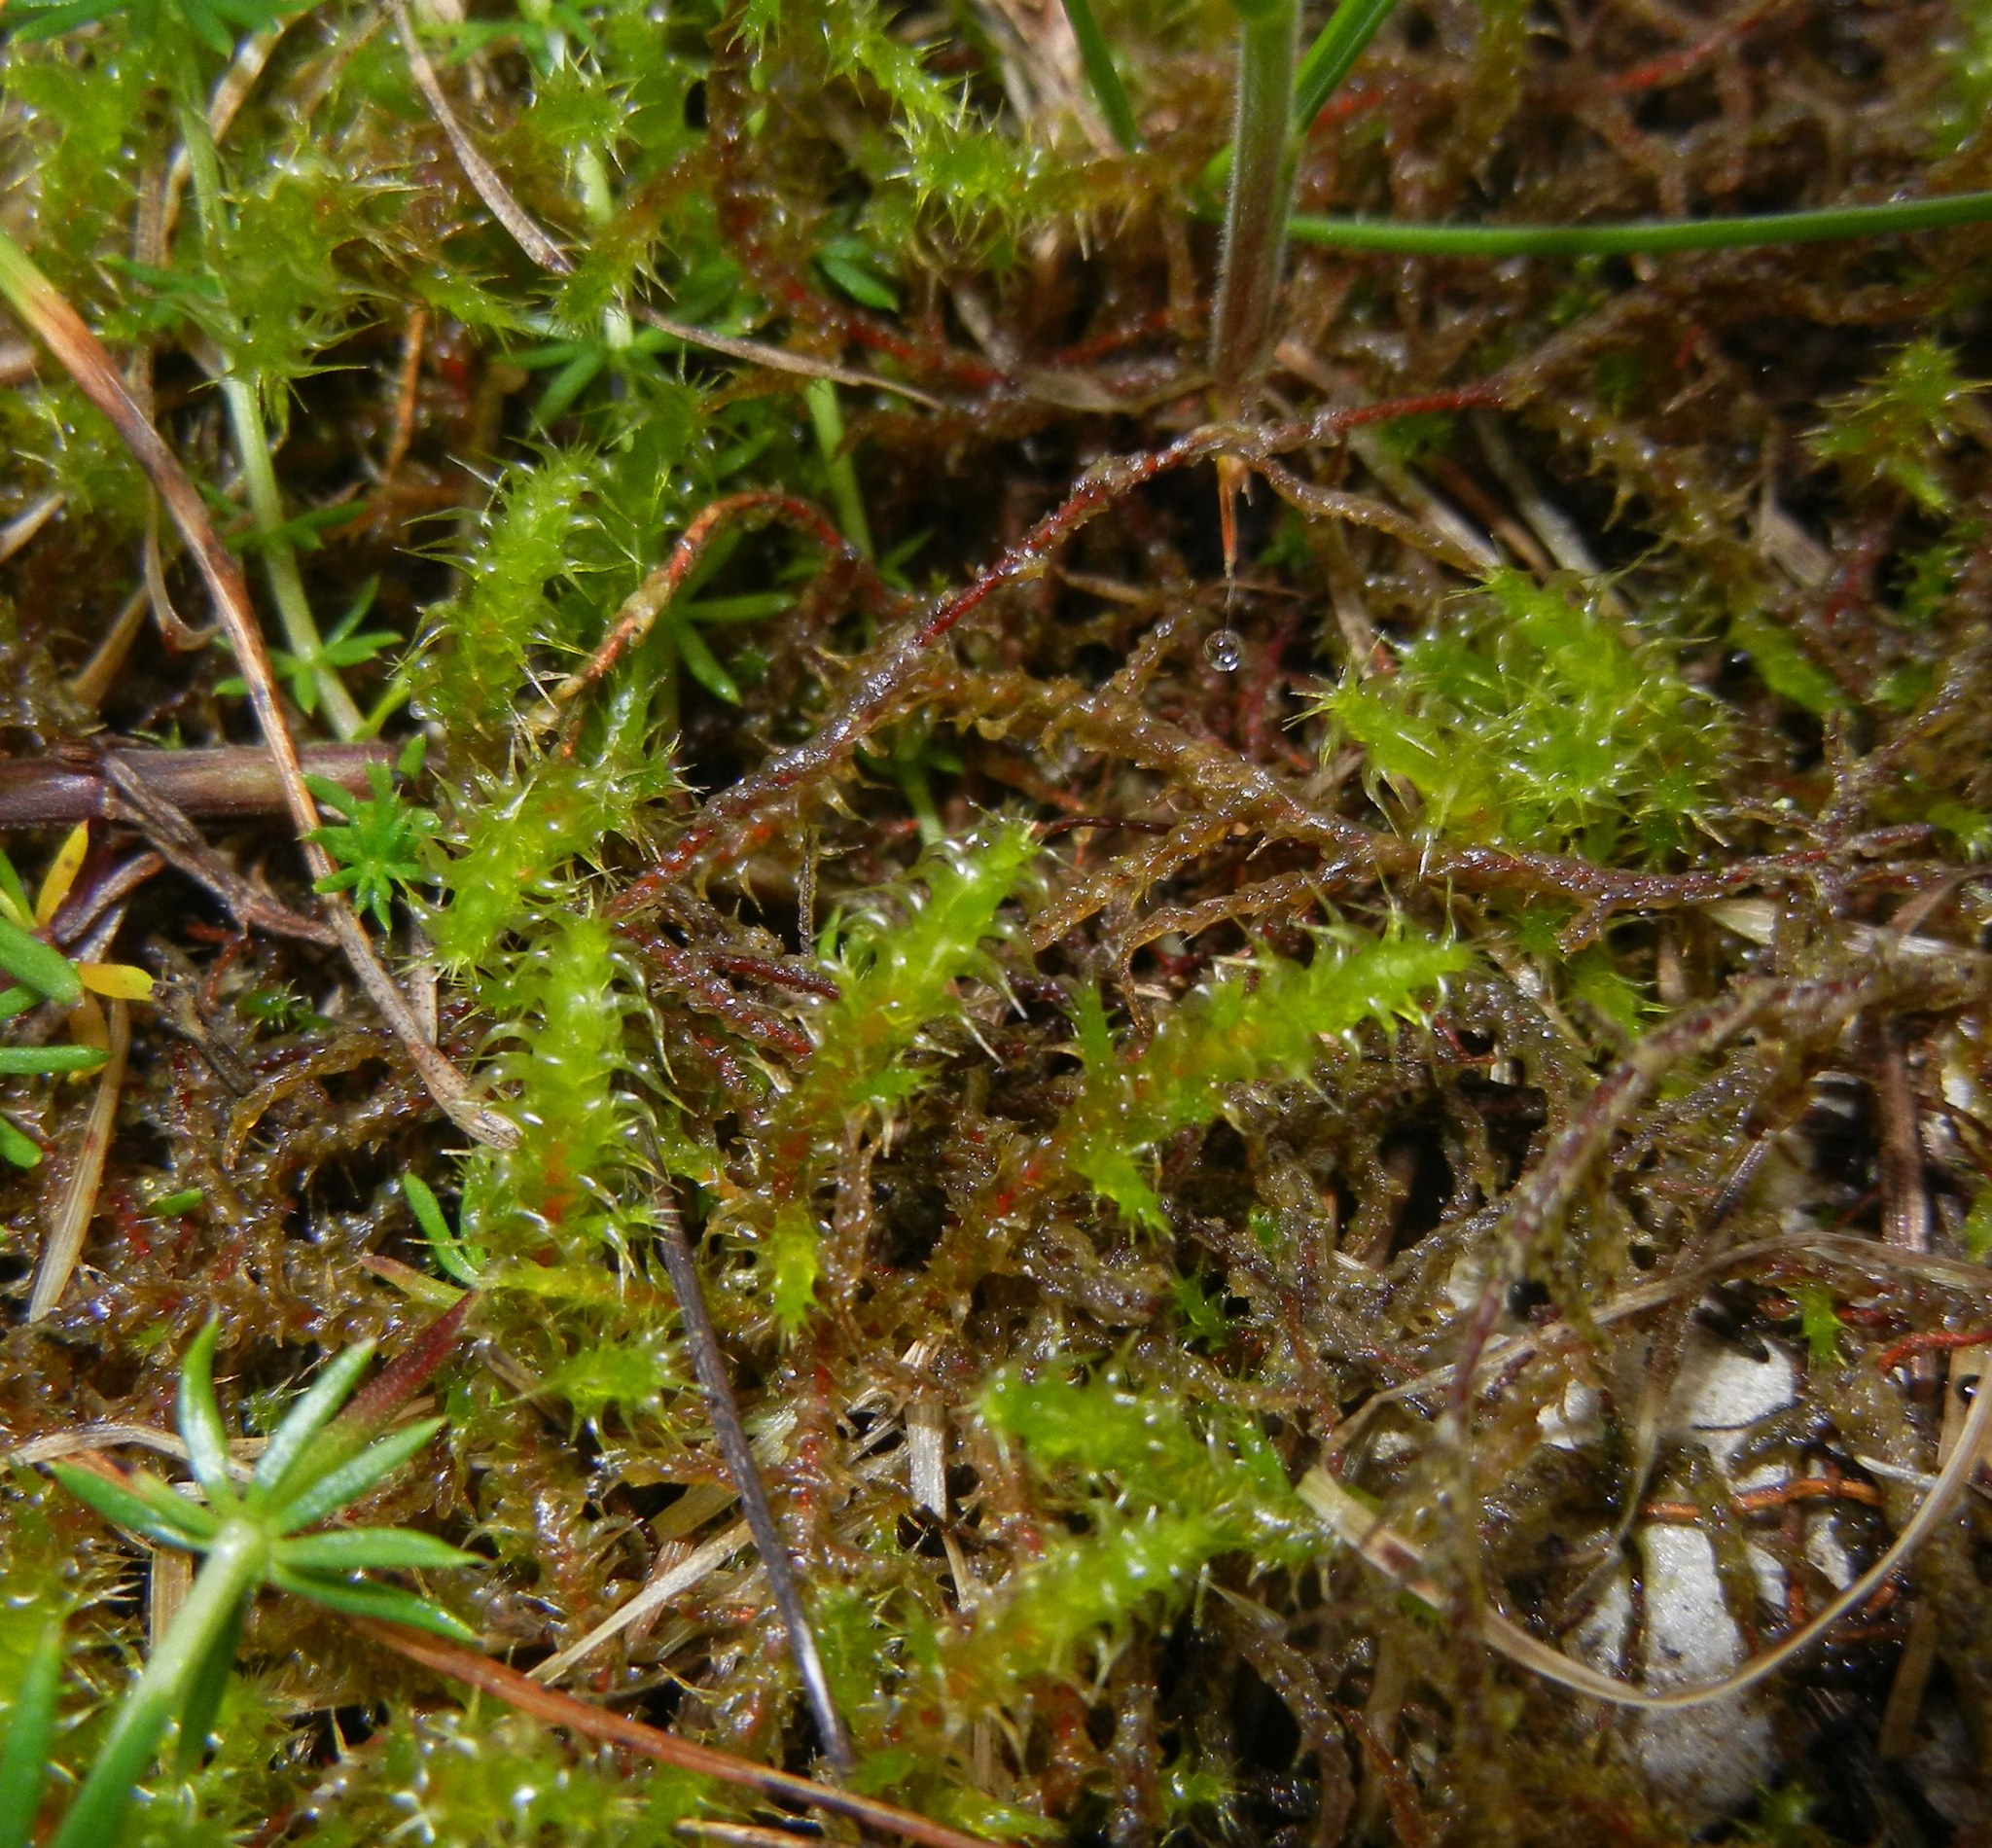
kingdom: Plantae
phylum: Bryophyta
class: Bryopsida
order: Hypnales
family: Hylocomiaceae
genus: Rhytidiadelphus
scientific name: Rhytidiadelphus squarrosus
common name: Springy turf-moss
